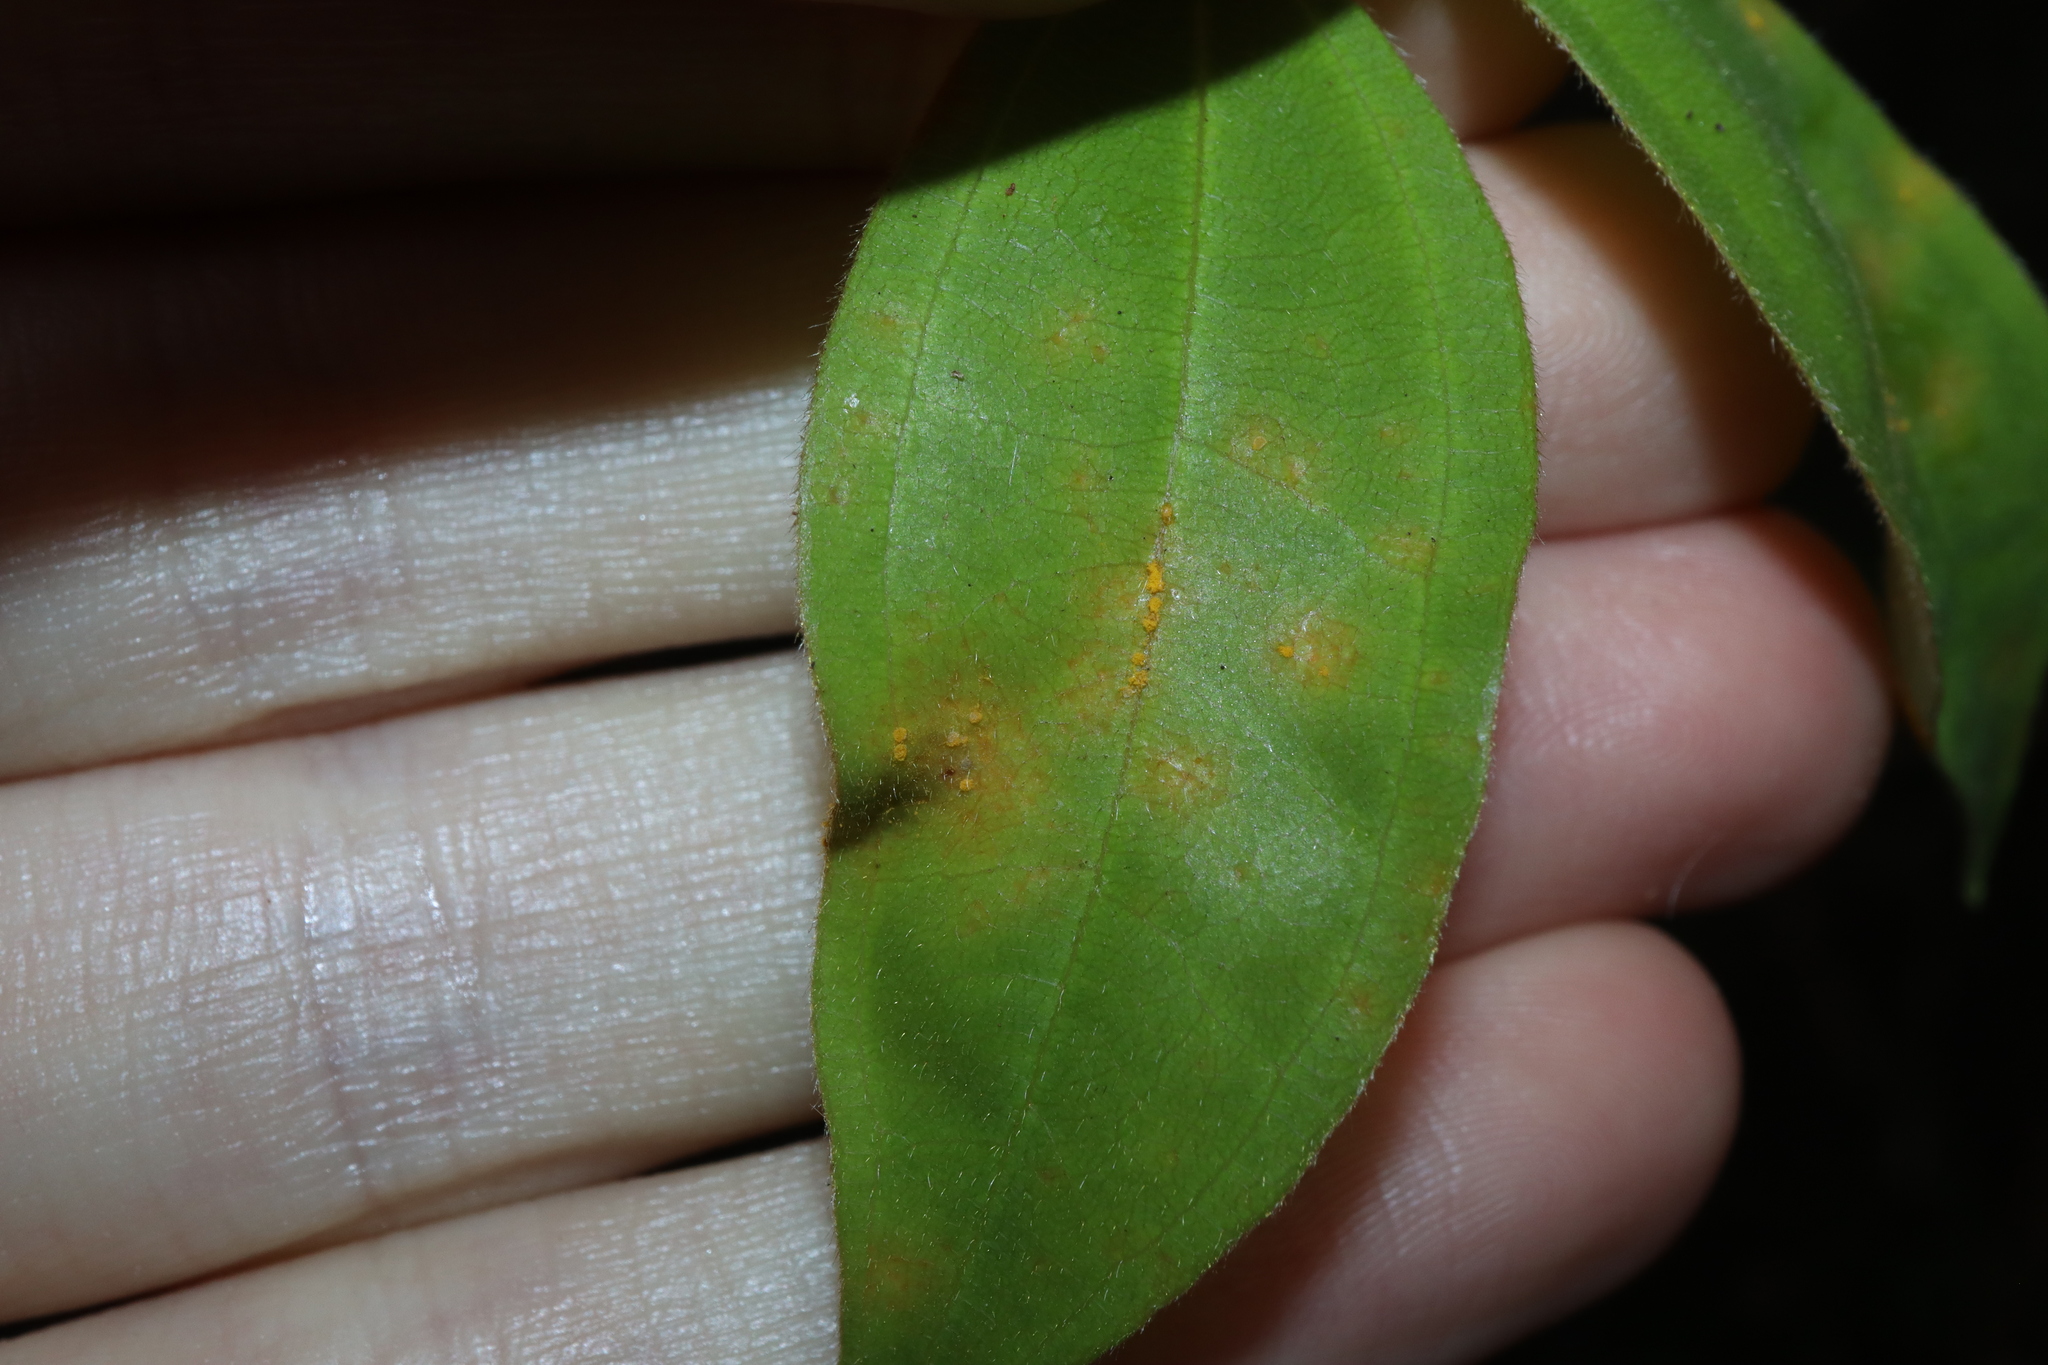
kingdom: Fungi
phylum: Basidiomycota
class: Pucciniomycetes
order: Pucciniales
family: Sphaerophragmiaceae
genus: Austropuccinia
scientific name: Austropuccinia psidii
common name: Myrtle rust
